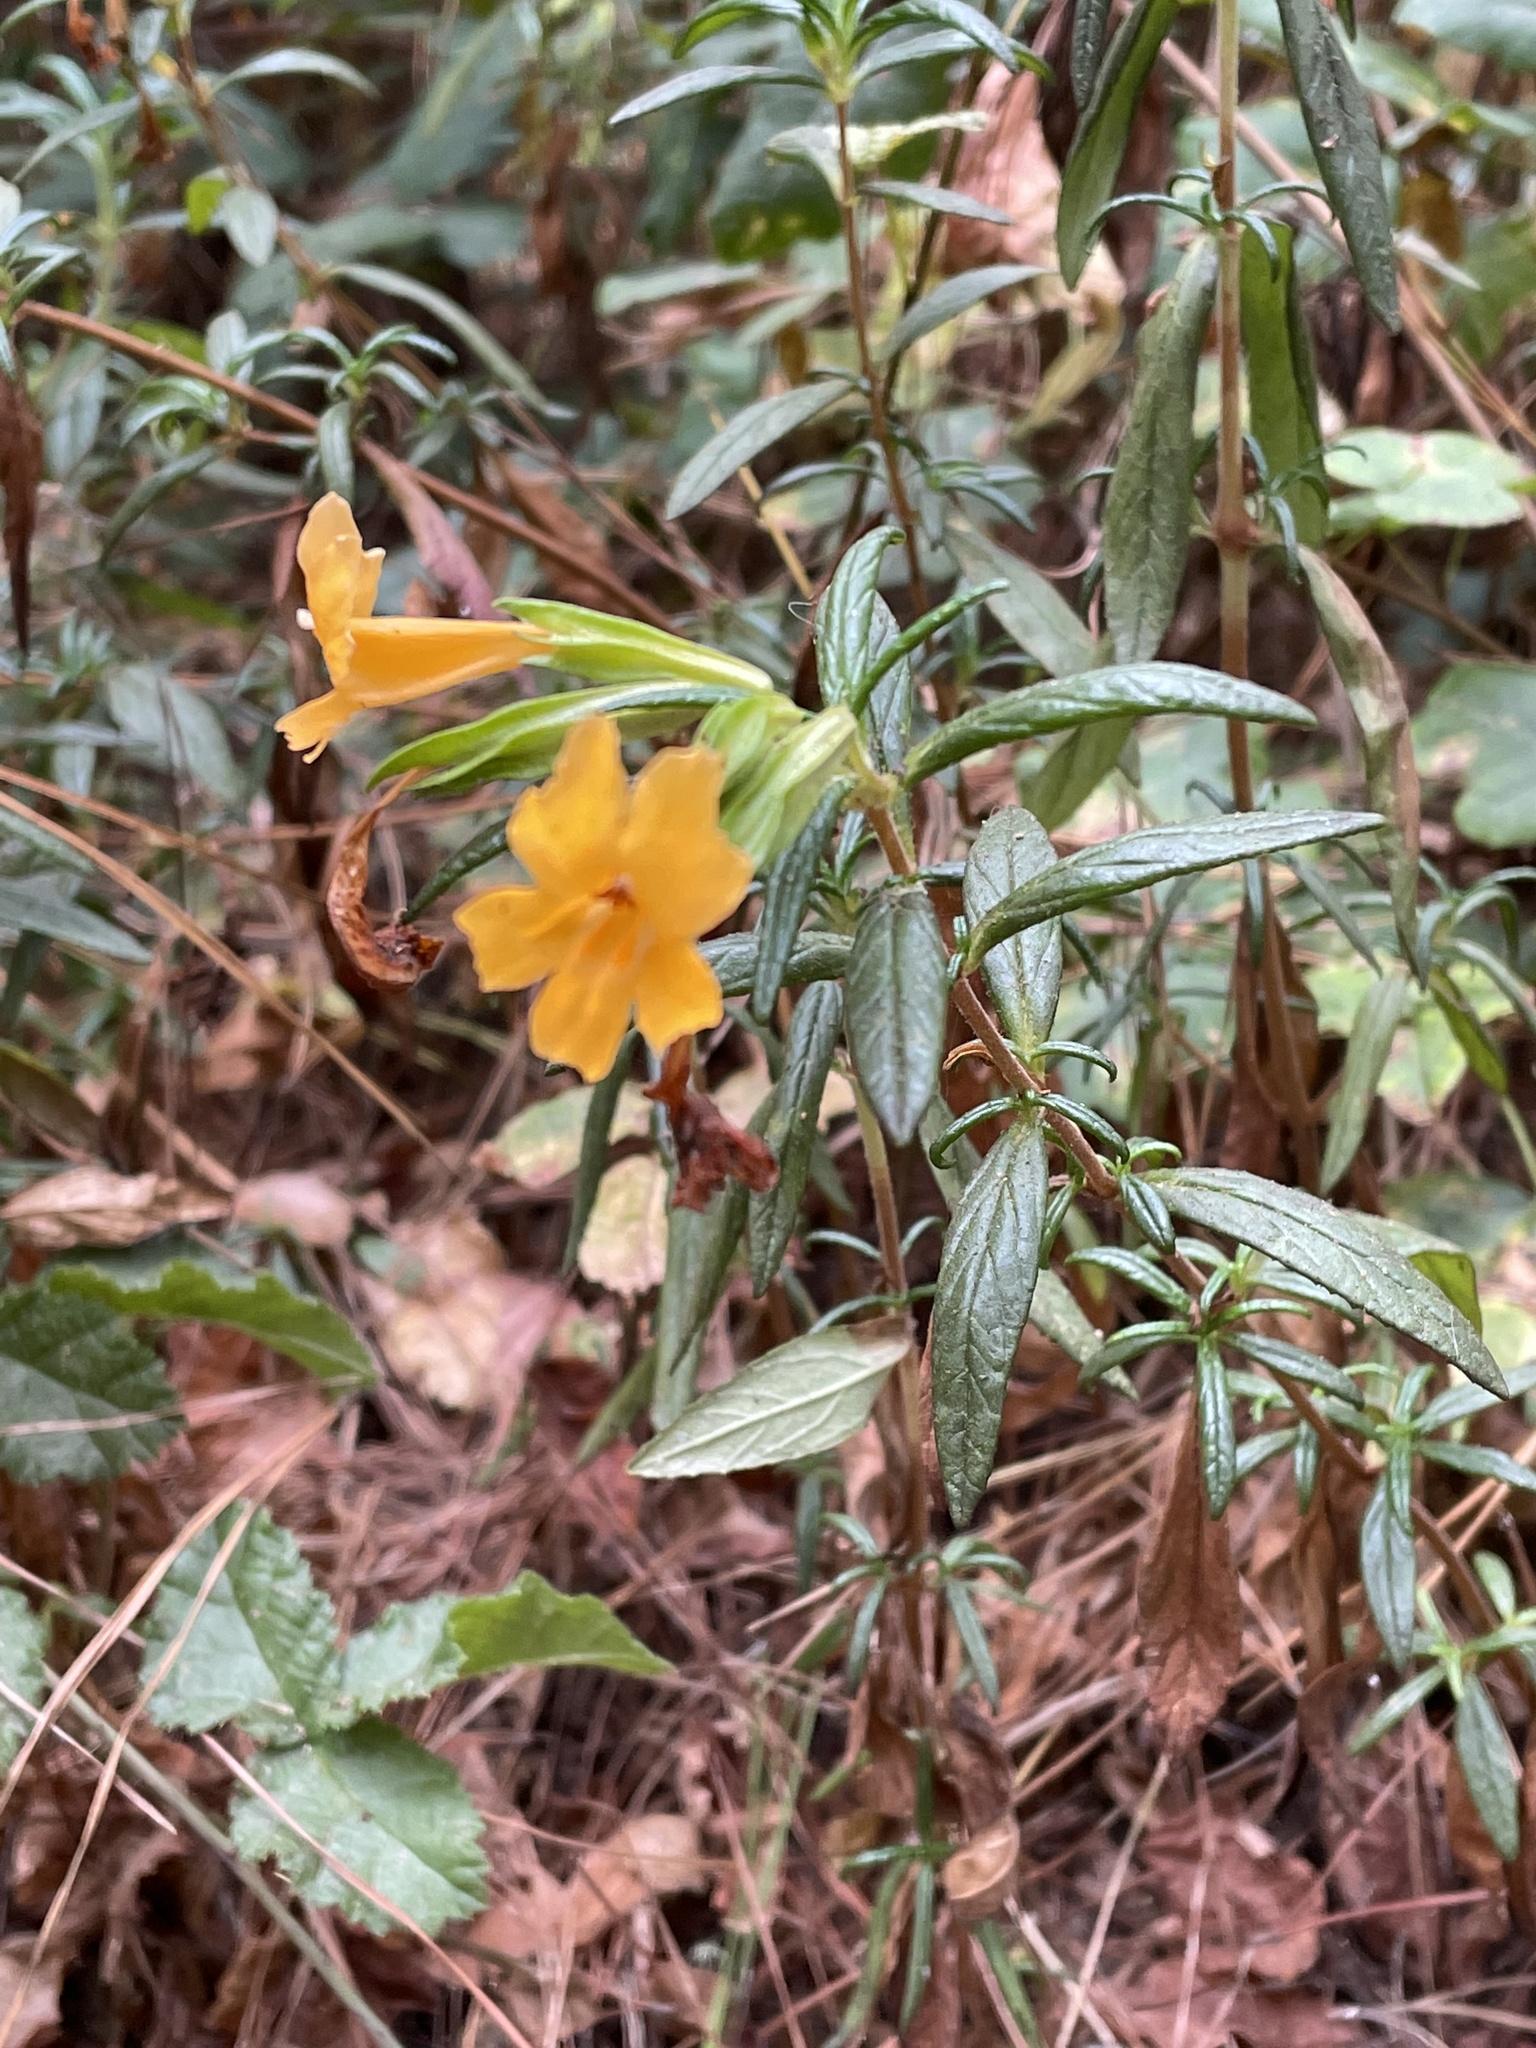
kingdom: Plantae
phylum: Tracheophyta
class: Magnoliopsida
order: Lamiales
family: Phrymaceae
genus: Diplacus
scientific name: Diplacus aurantiacus
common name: Bush monkey-flower
